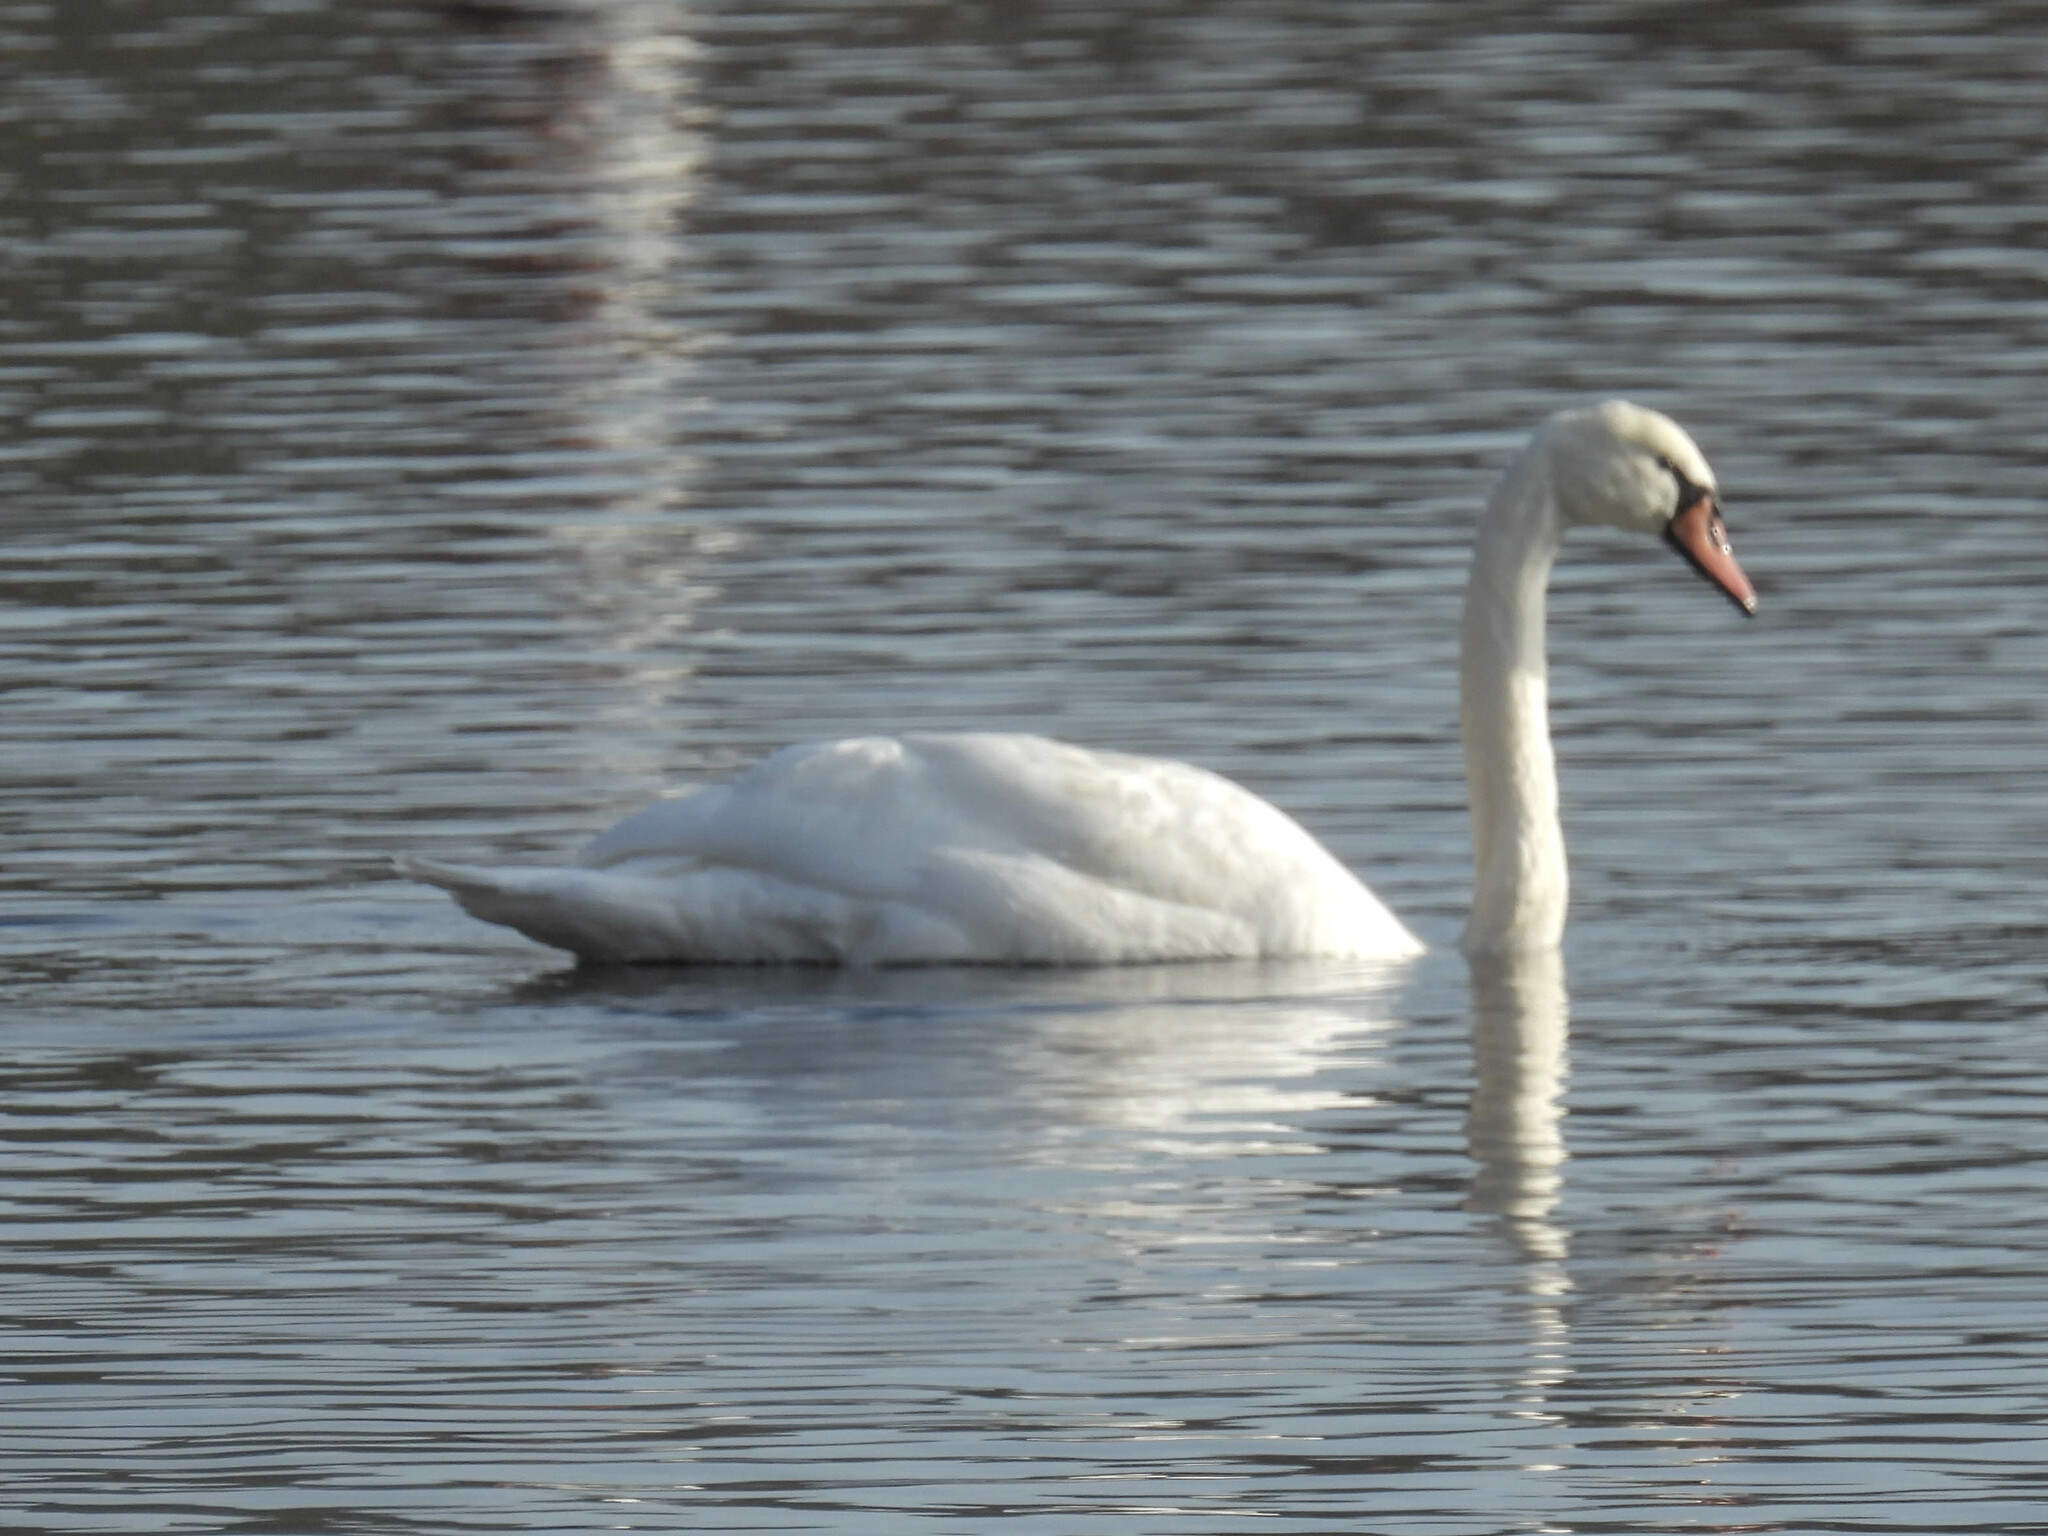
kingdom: Animalia
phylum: Chordata
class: Aves
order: Anseriformes
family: Anatidae
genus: Cygnus
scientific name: Cygnus olor
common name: Mute swan
